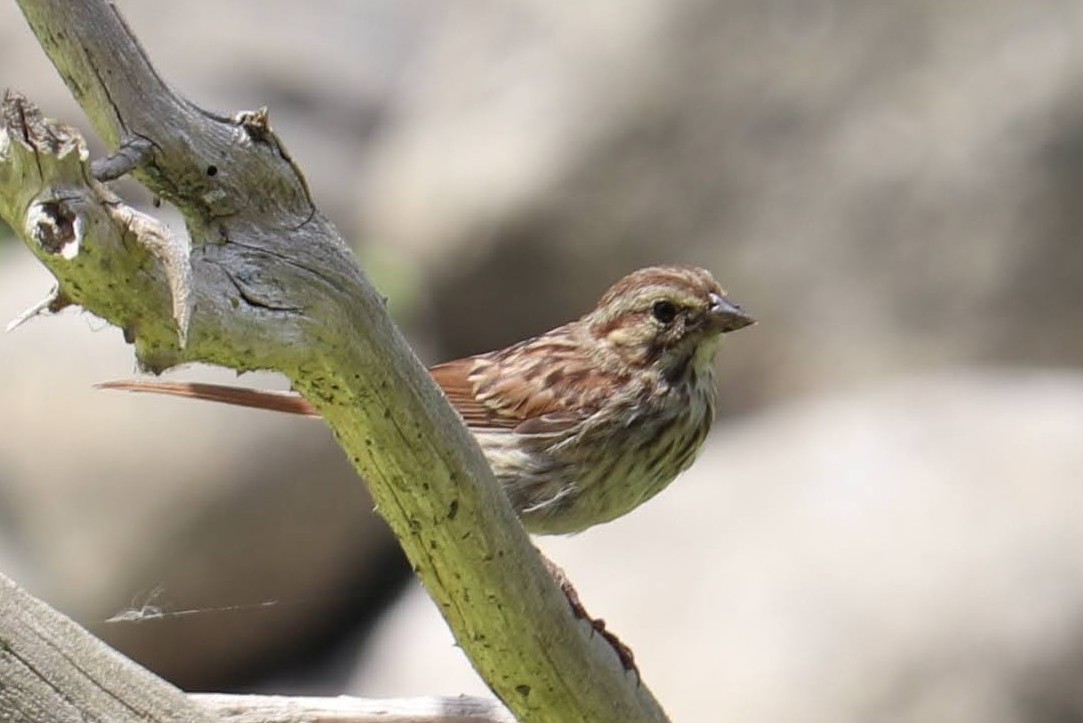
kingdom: Animalia
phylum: Chordata
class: Aves
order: Passeriformes
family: Passerellidae
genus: Melospiza
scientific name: Melospiza melodia
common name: Song sparrow
